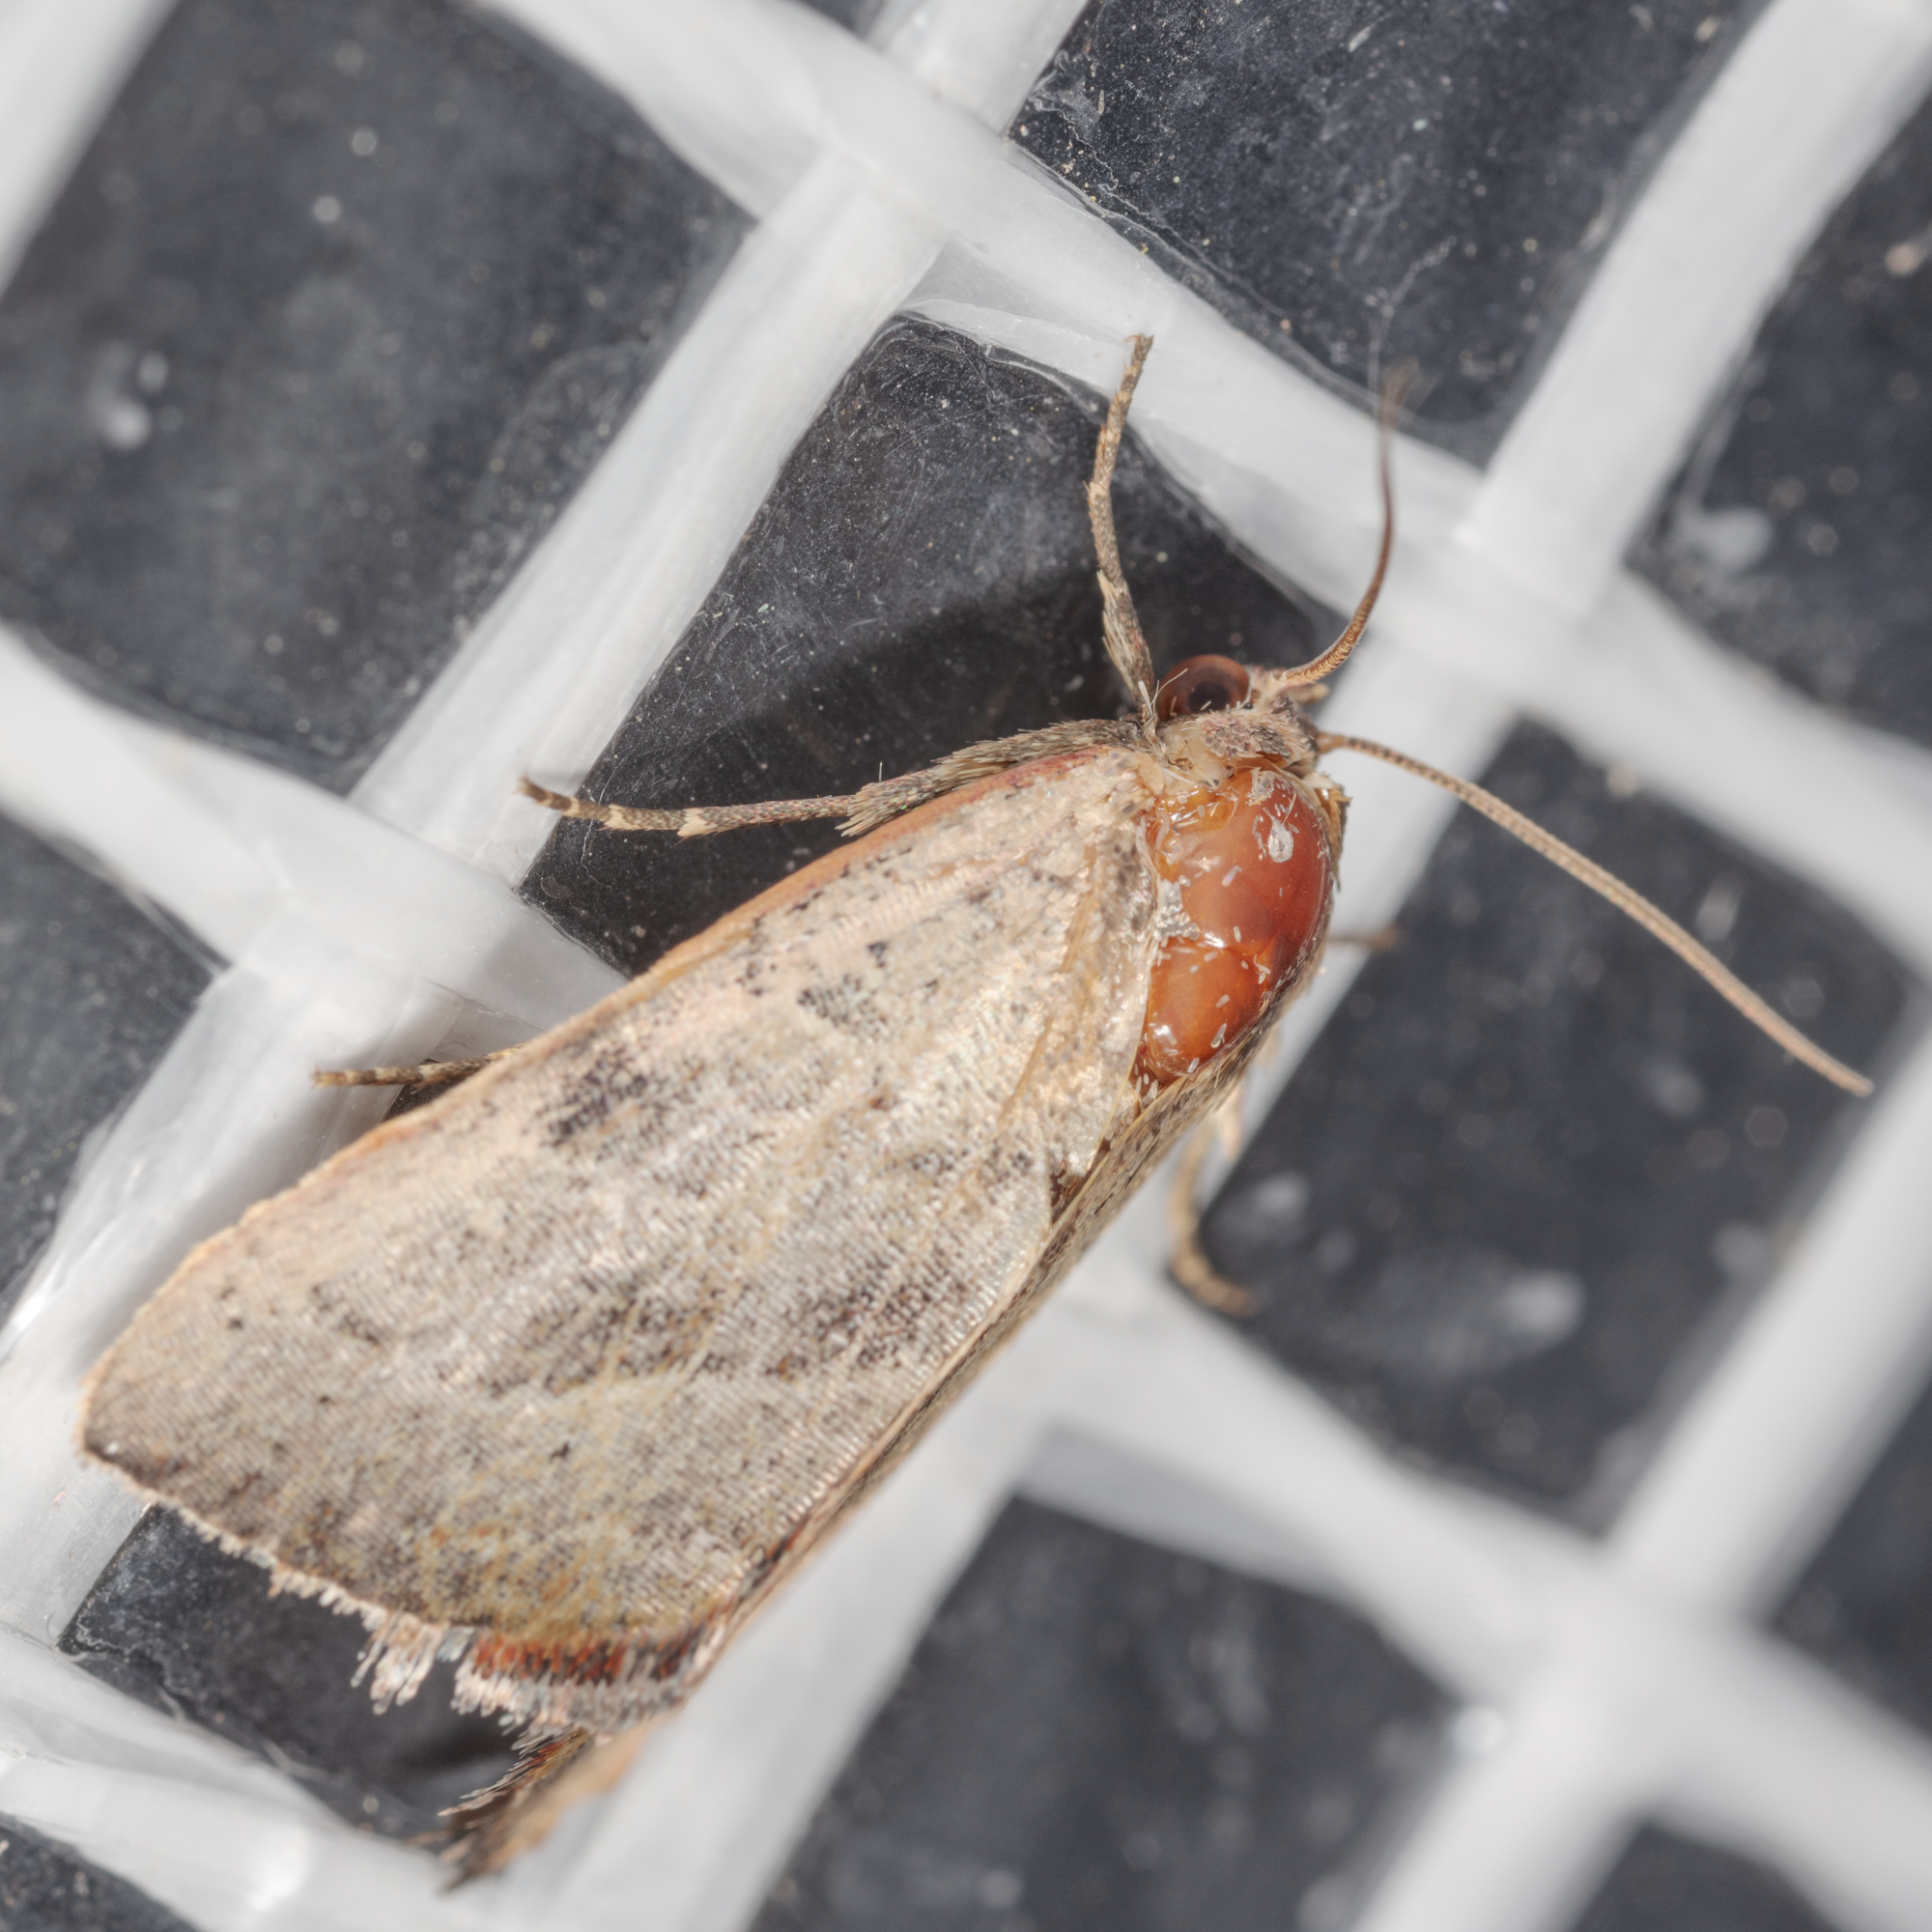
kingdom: Animalia
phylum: Arthropoda
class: Insecta
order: Lepidoptera
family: Noctuidae
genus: Galgula
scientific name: Galgula partita
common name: Wedgeling
